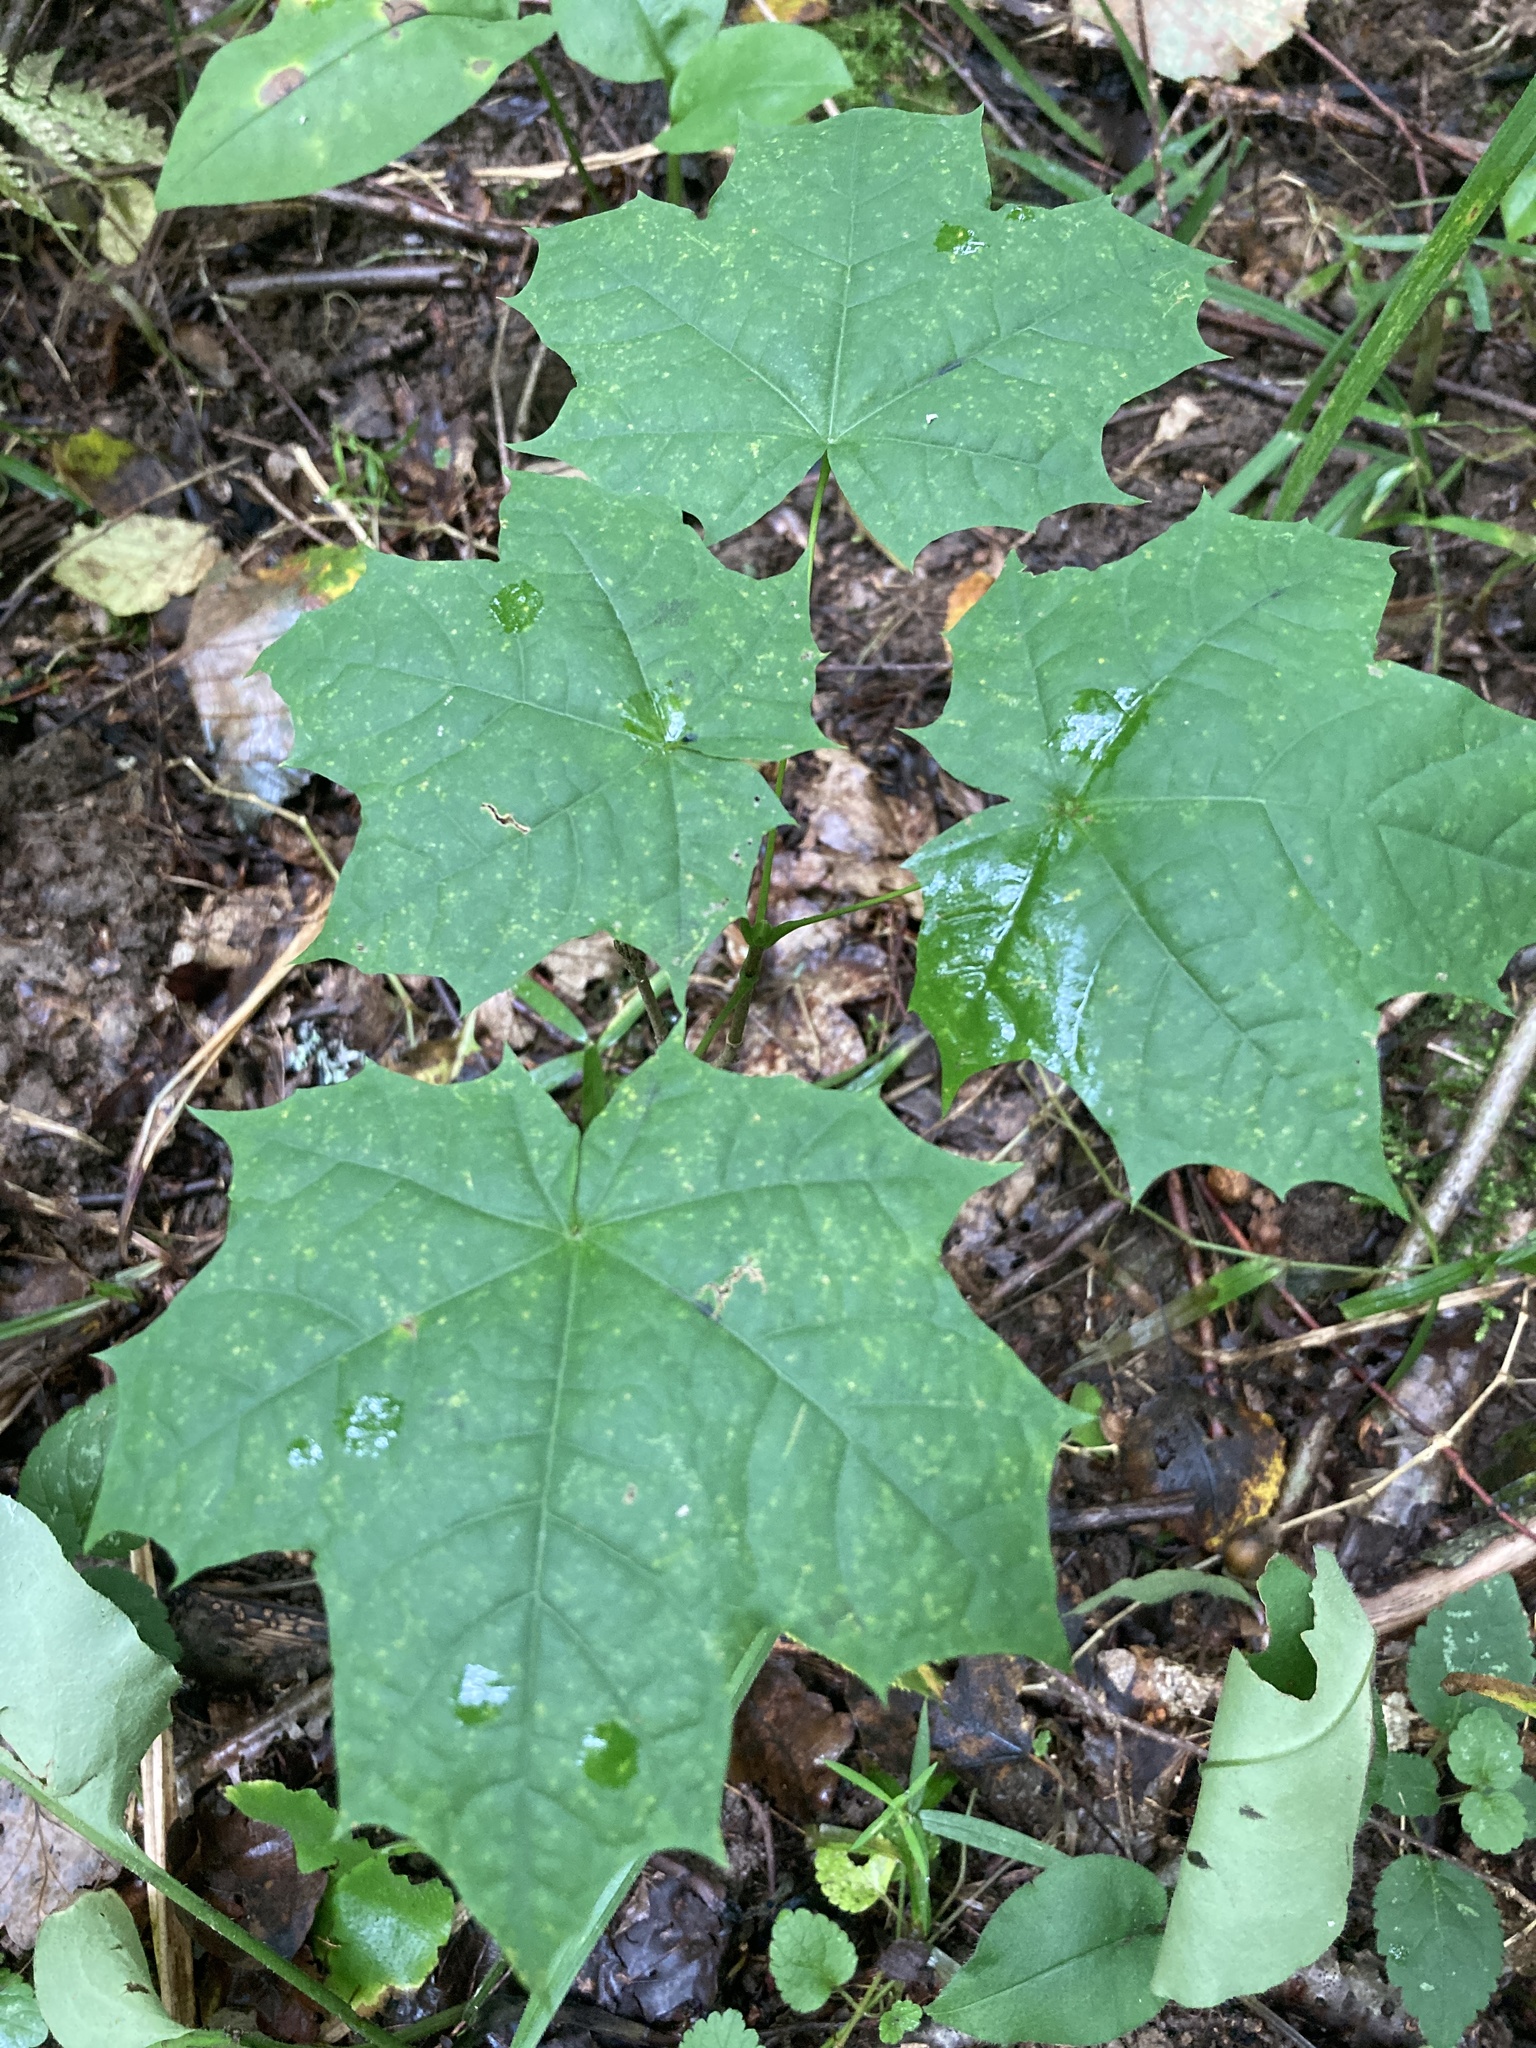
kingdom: Plantae
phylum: Tracheophyta
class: Magnoliopsida
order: Sapindales
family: Sapindaceae
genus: Acer
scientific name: Acer platanoides
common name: Norway maple
